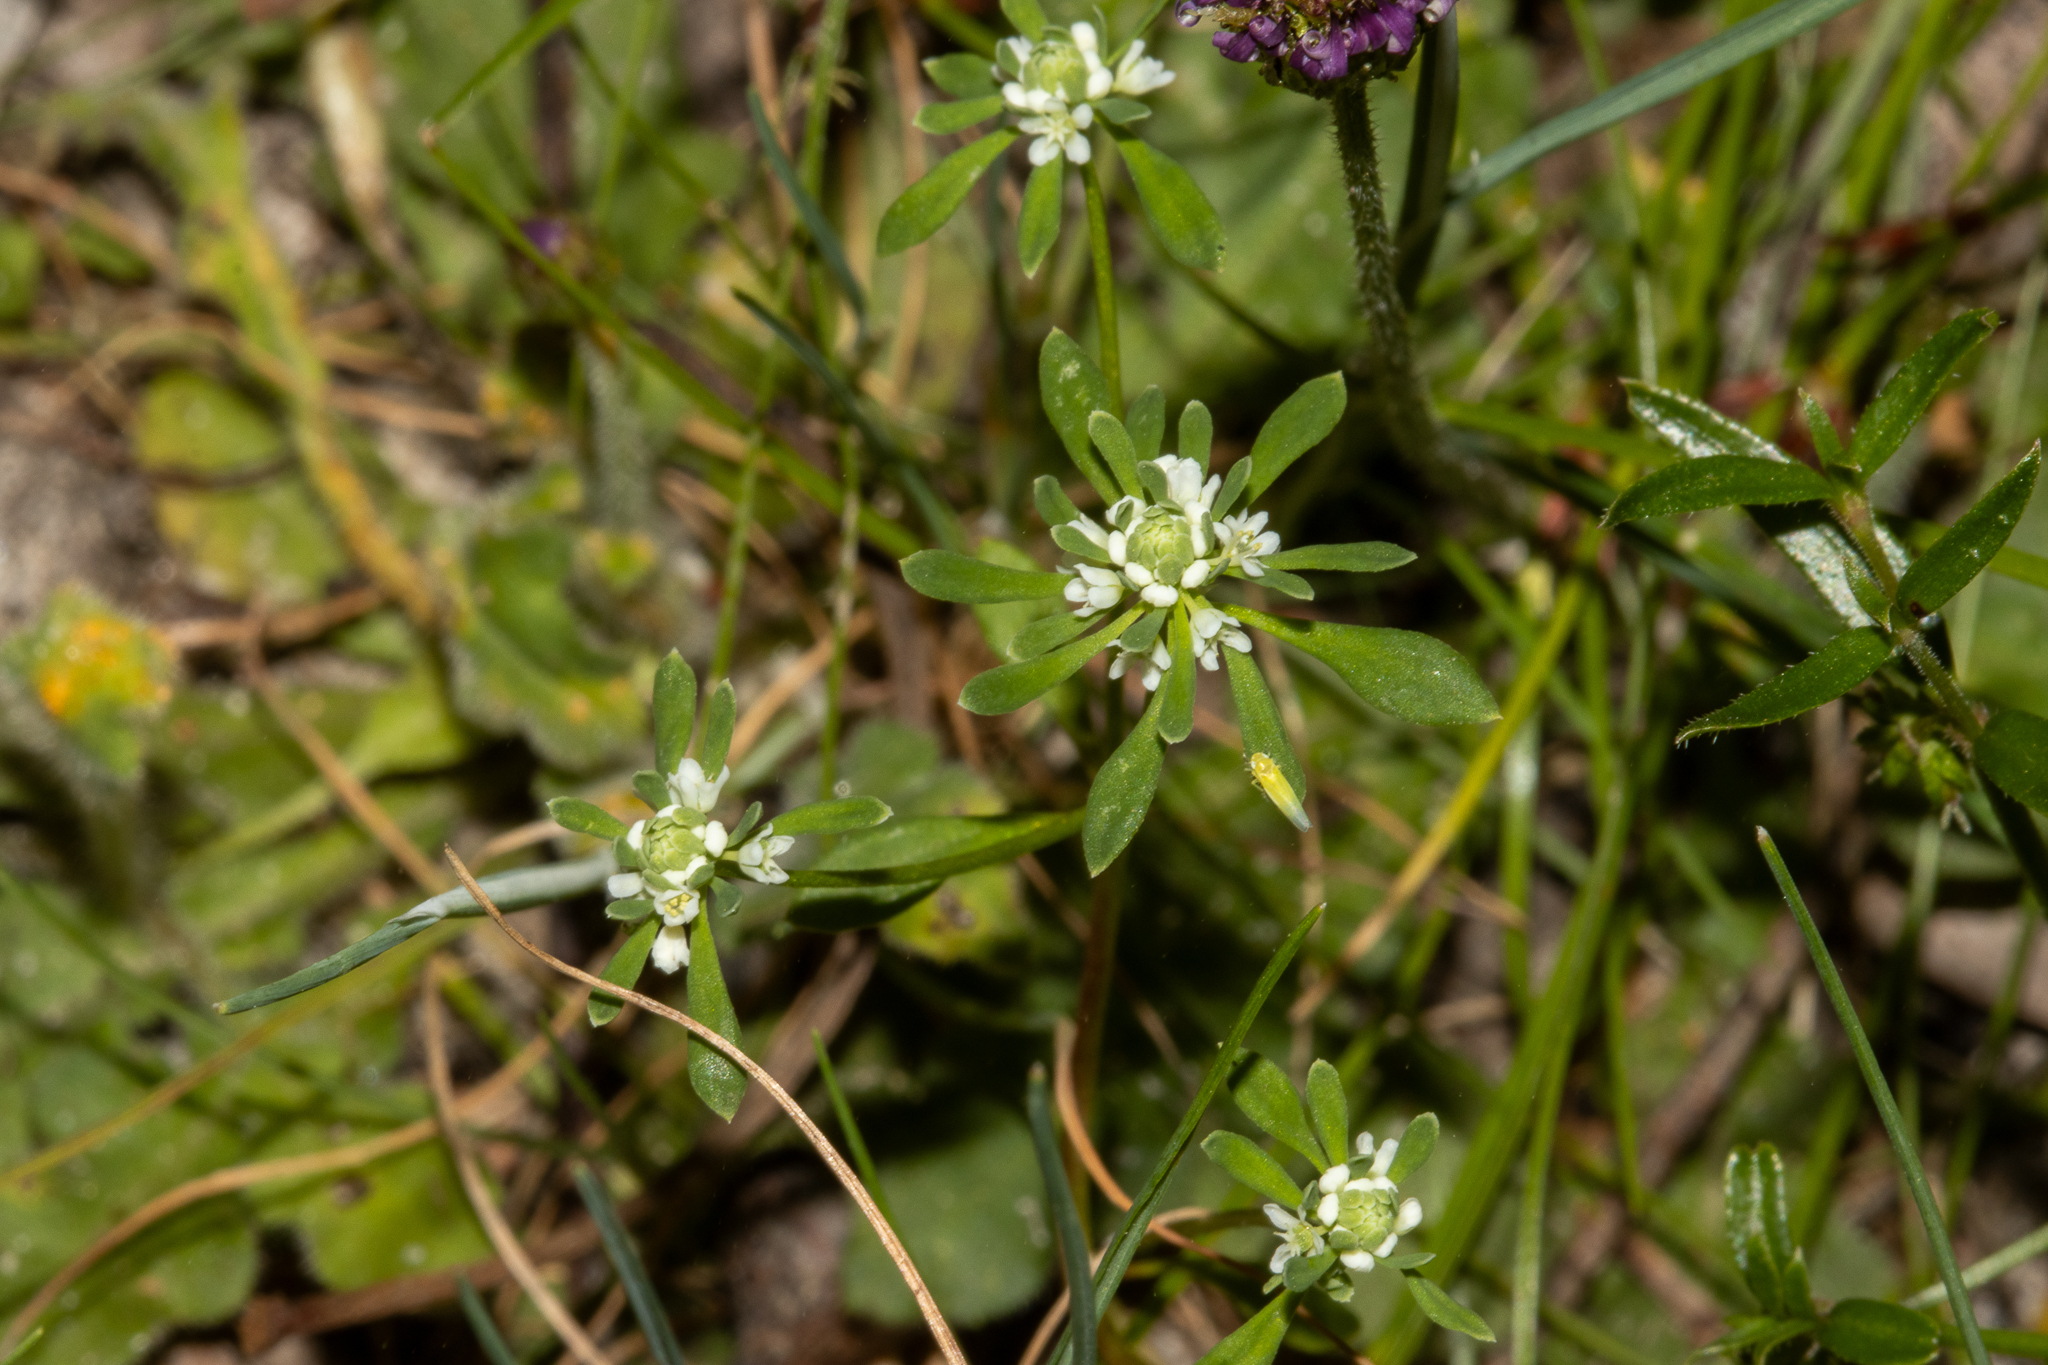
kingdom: Plantae
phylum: Tracheophyta
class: Magnoliopsida
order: Malpighiales
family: Phyllanthaceae
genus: Poranthera
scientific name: Poranthera microphylla
